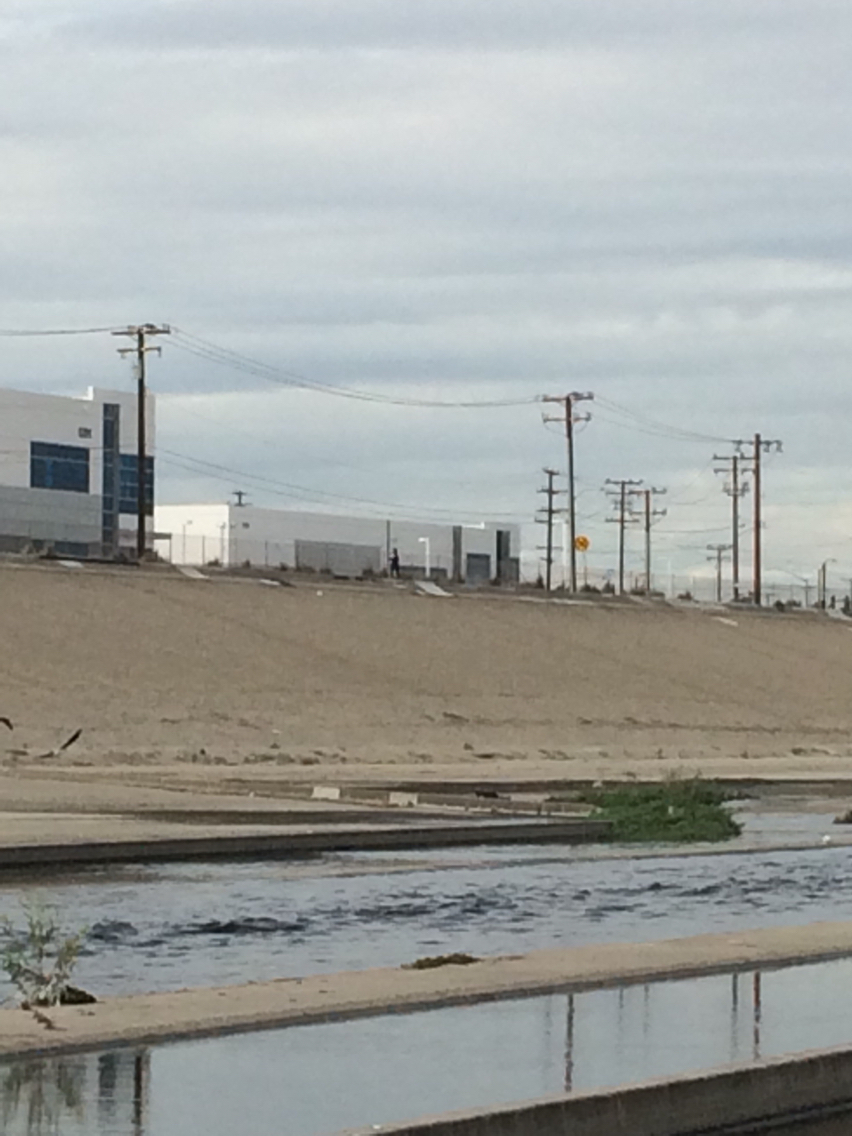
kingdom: Animalia
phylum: Chordata
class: Aves
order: Gruiformes
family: Rallidae
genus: Fulica
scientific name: Fulica americana
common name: American coot
